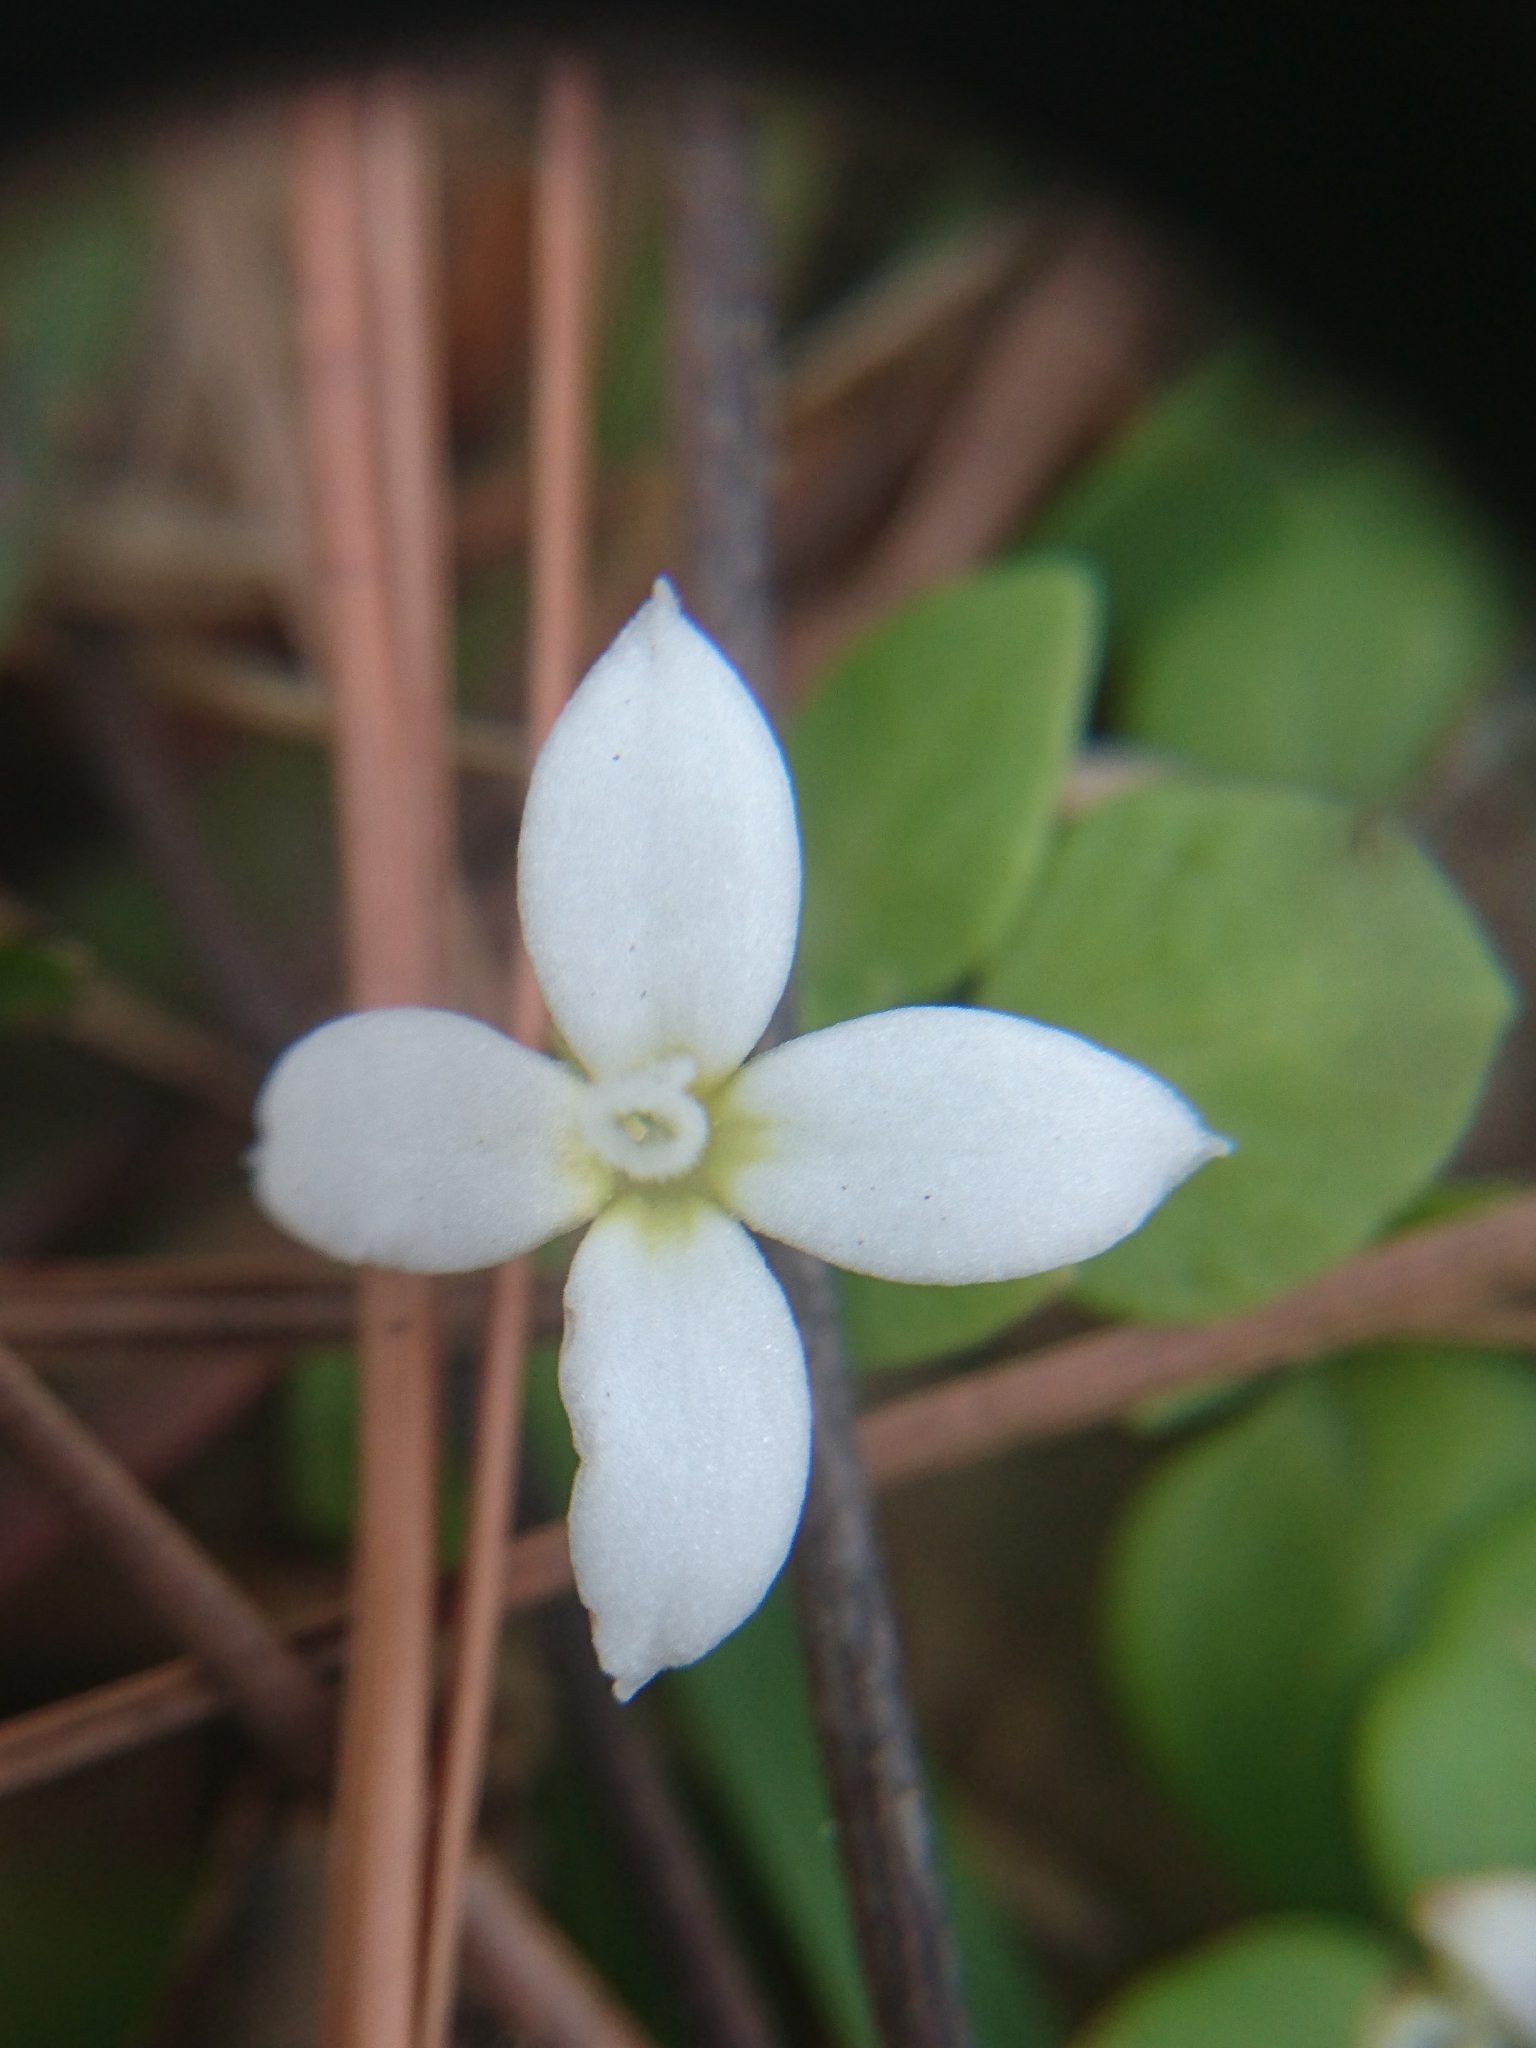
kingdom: Plantae
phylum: Tracheophyta
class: Magnoliopsida
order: Gentianales
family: Rubiaceae
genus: Houstonia
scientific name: Houstonia procumbens
